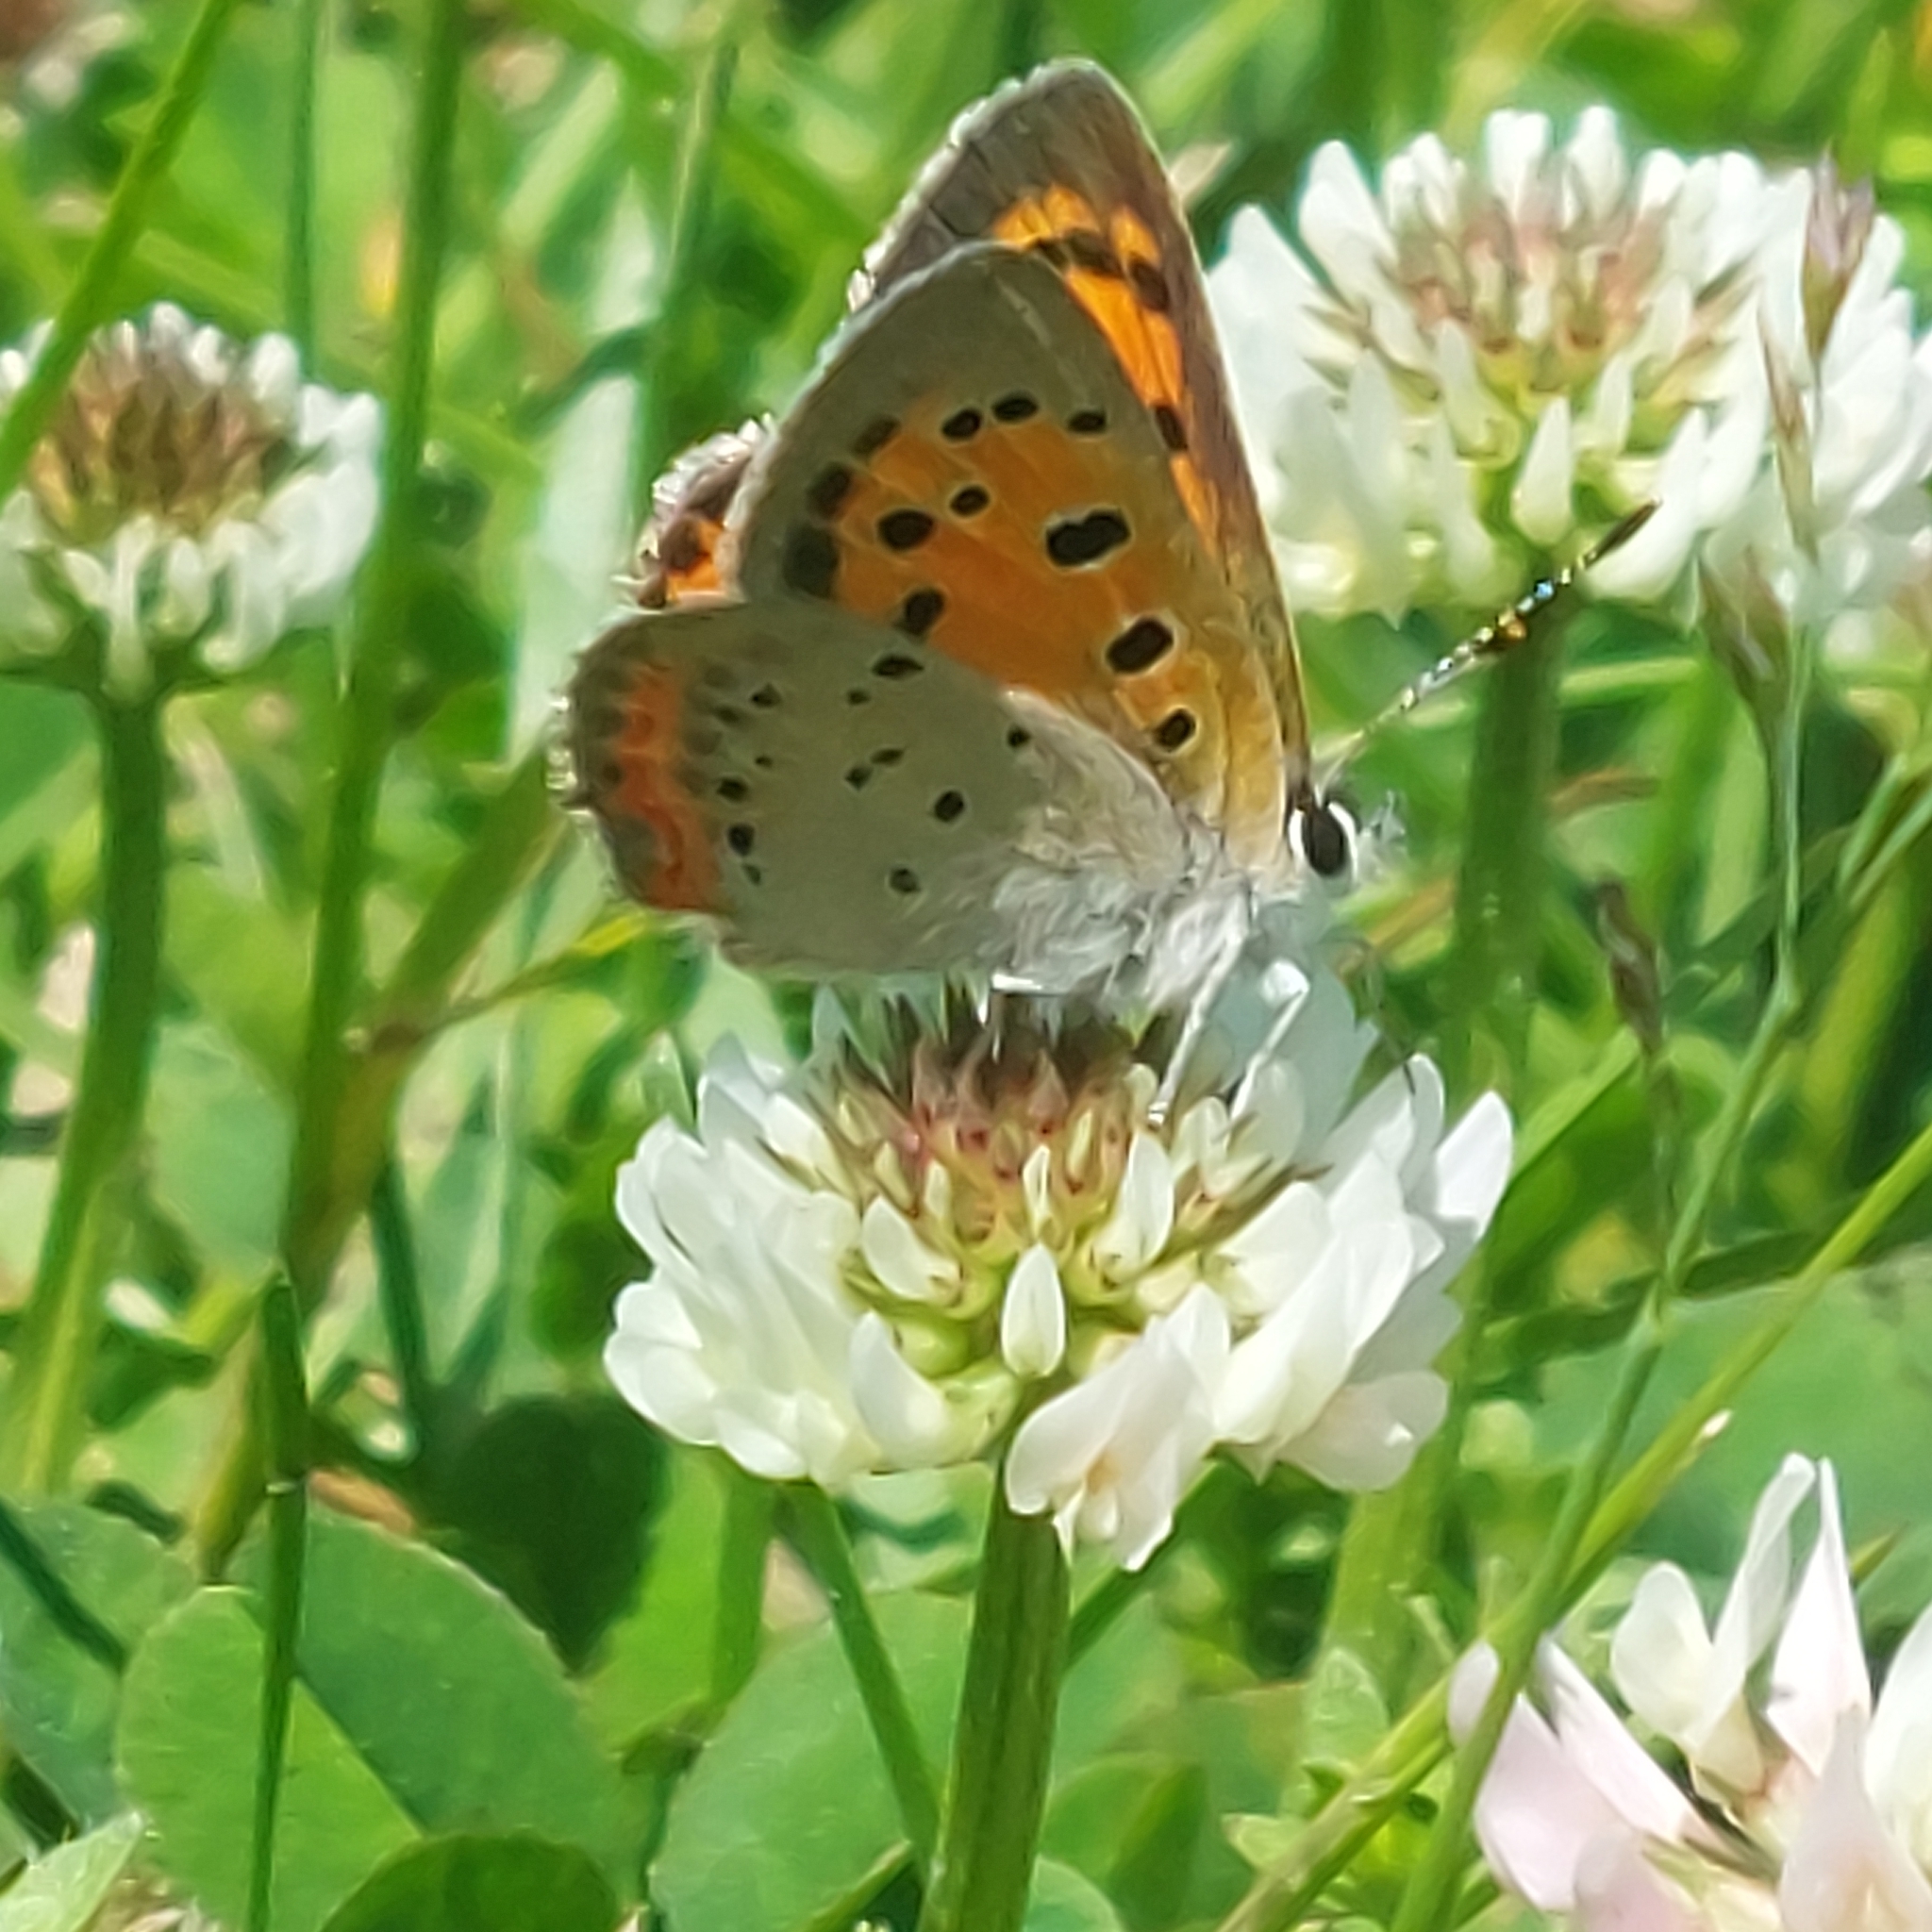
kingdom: Animalia
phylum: Arthropoda
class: Insecta
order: Lepidoptera
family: Lycaenidae
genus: Lycaena
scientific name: Lycaena hypophlaeas
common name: American copper
